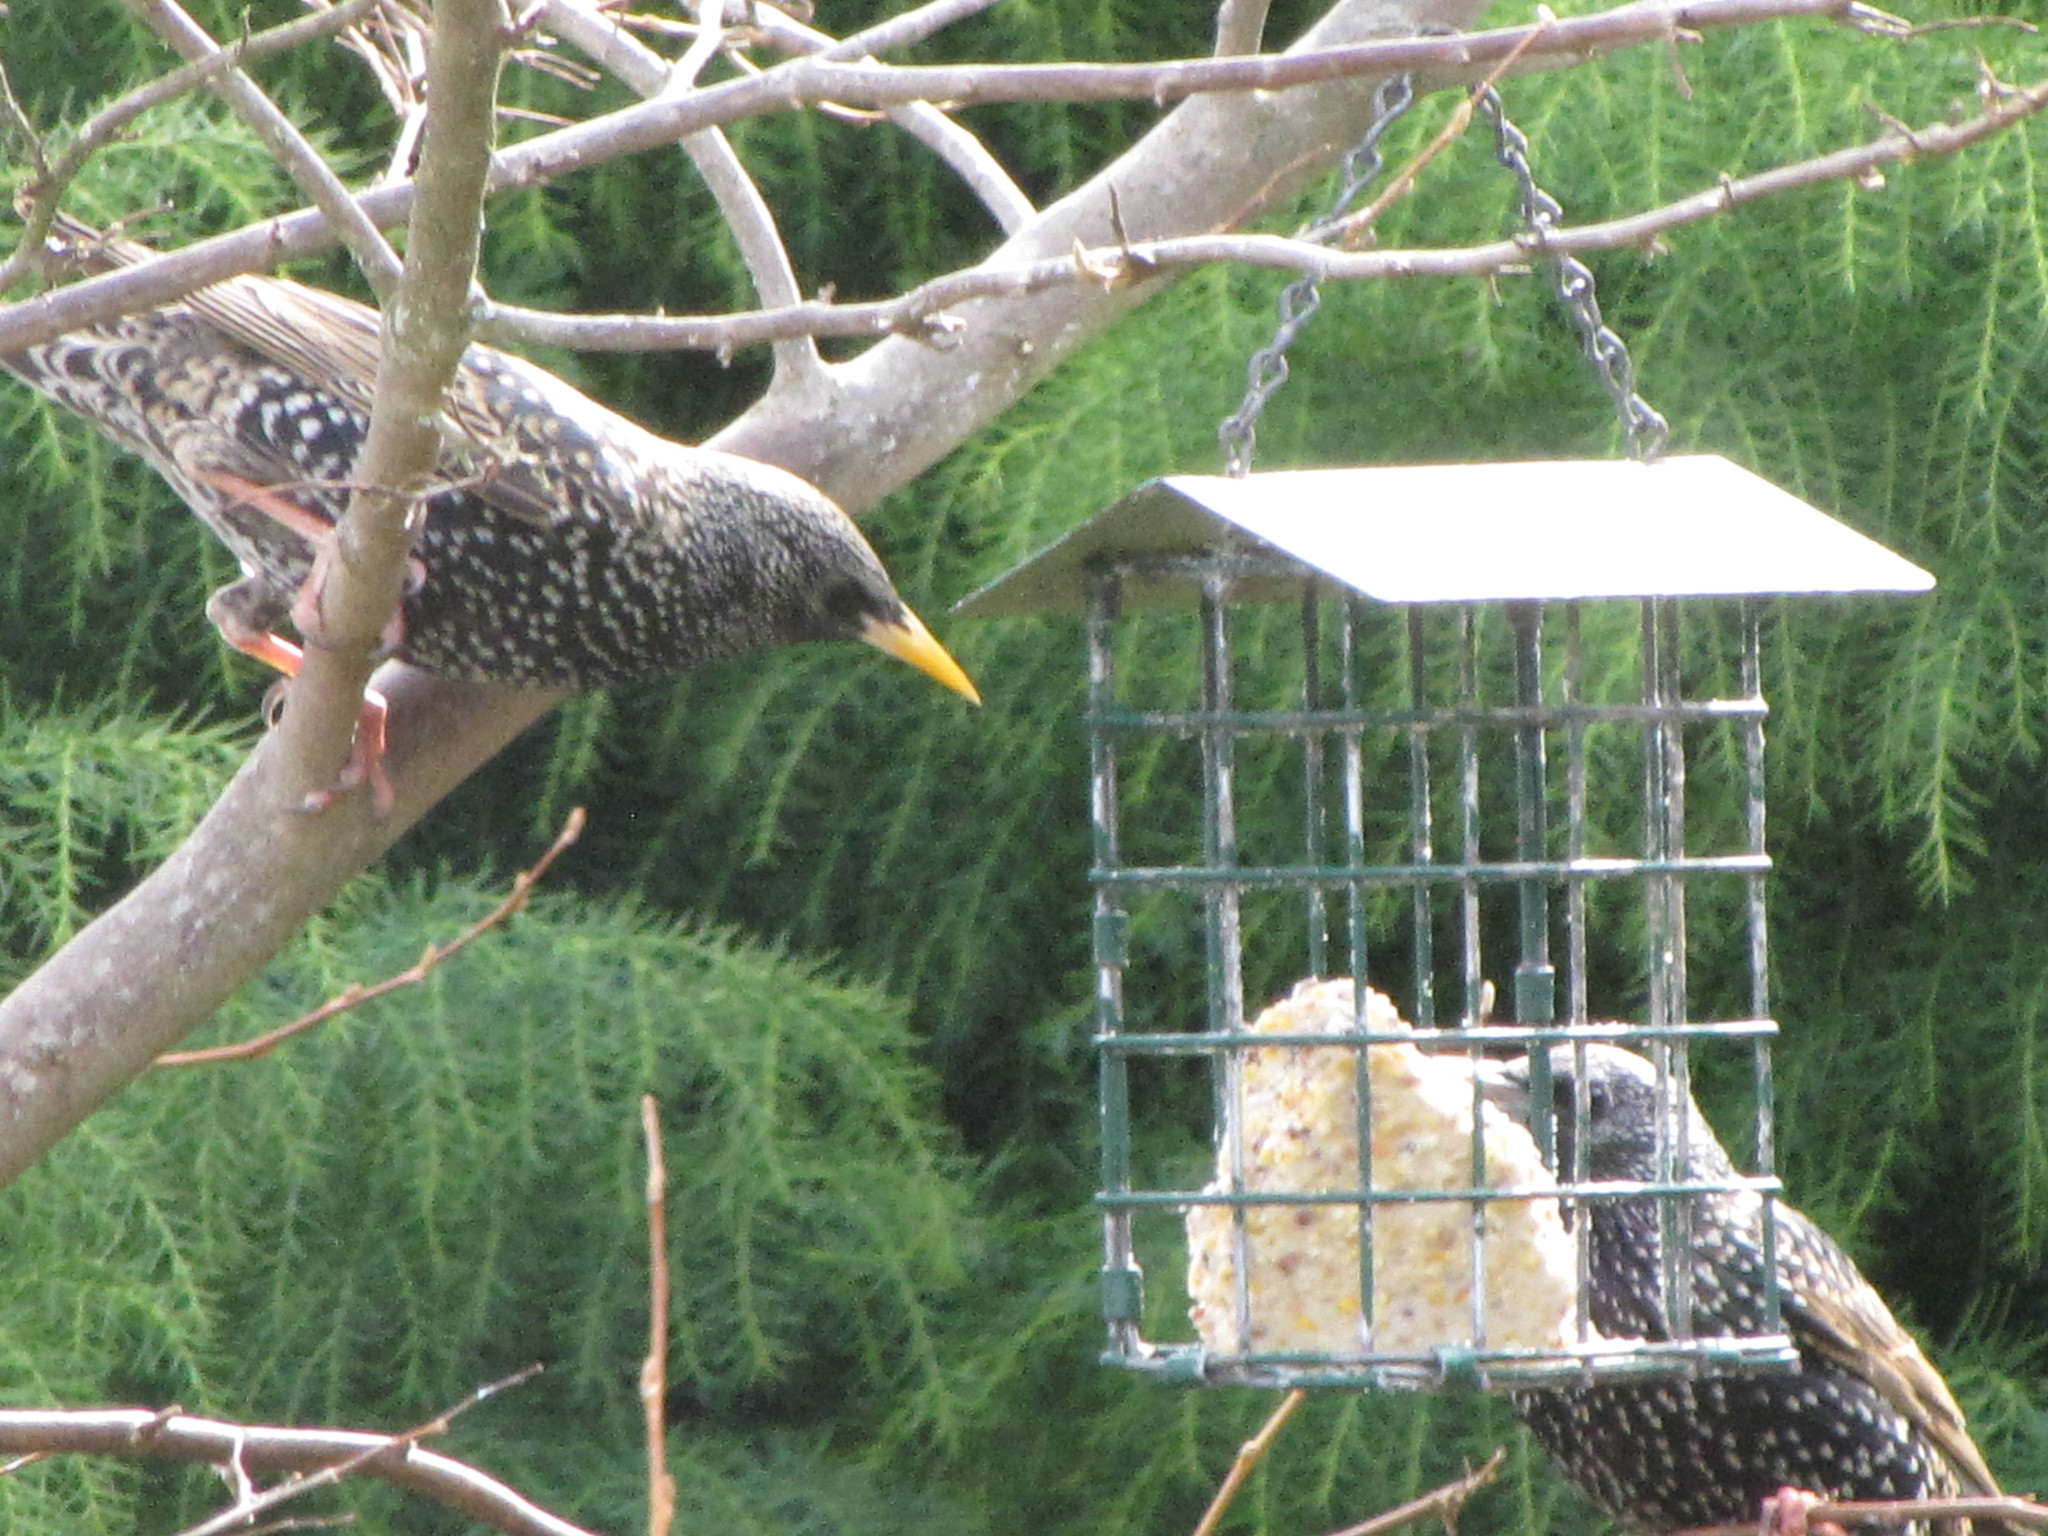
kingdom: Animalia
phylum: Chordata
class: Aves
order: Passeriformes
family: Sturnidae
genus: Sturnus
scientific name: Sturnus vulgaris
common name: Common starling
